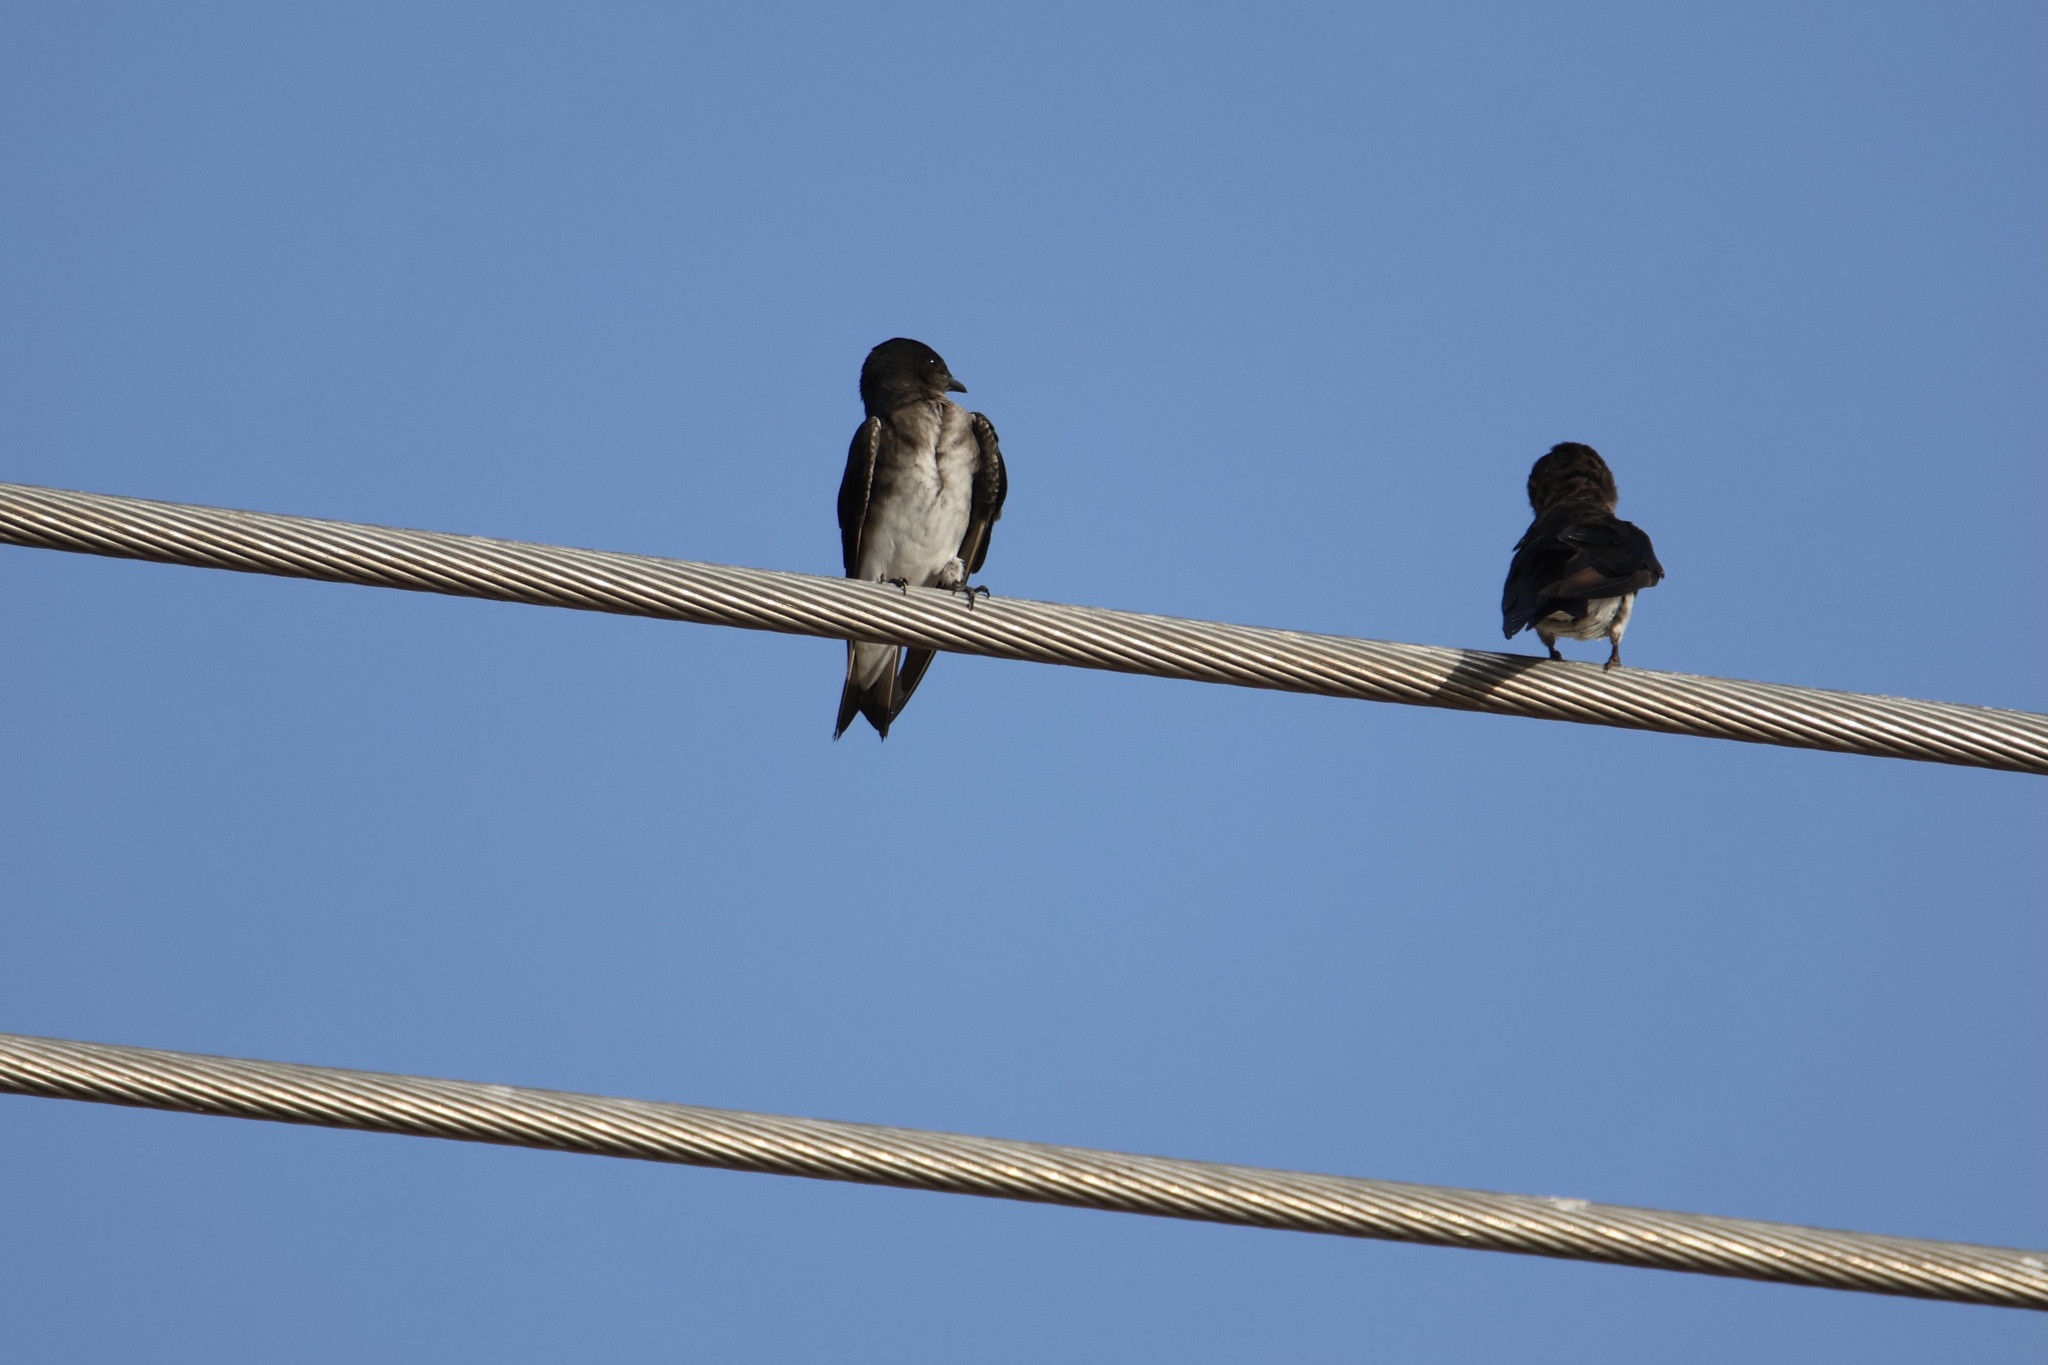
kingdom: Animalia
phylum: Chordata
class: Aves
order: Passeriformes
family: Hirundinidae
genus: Progne
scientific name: Progne chalybea
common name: Grey-breasted martin
